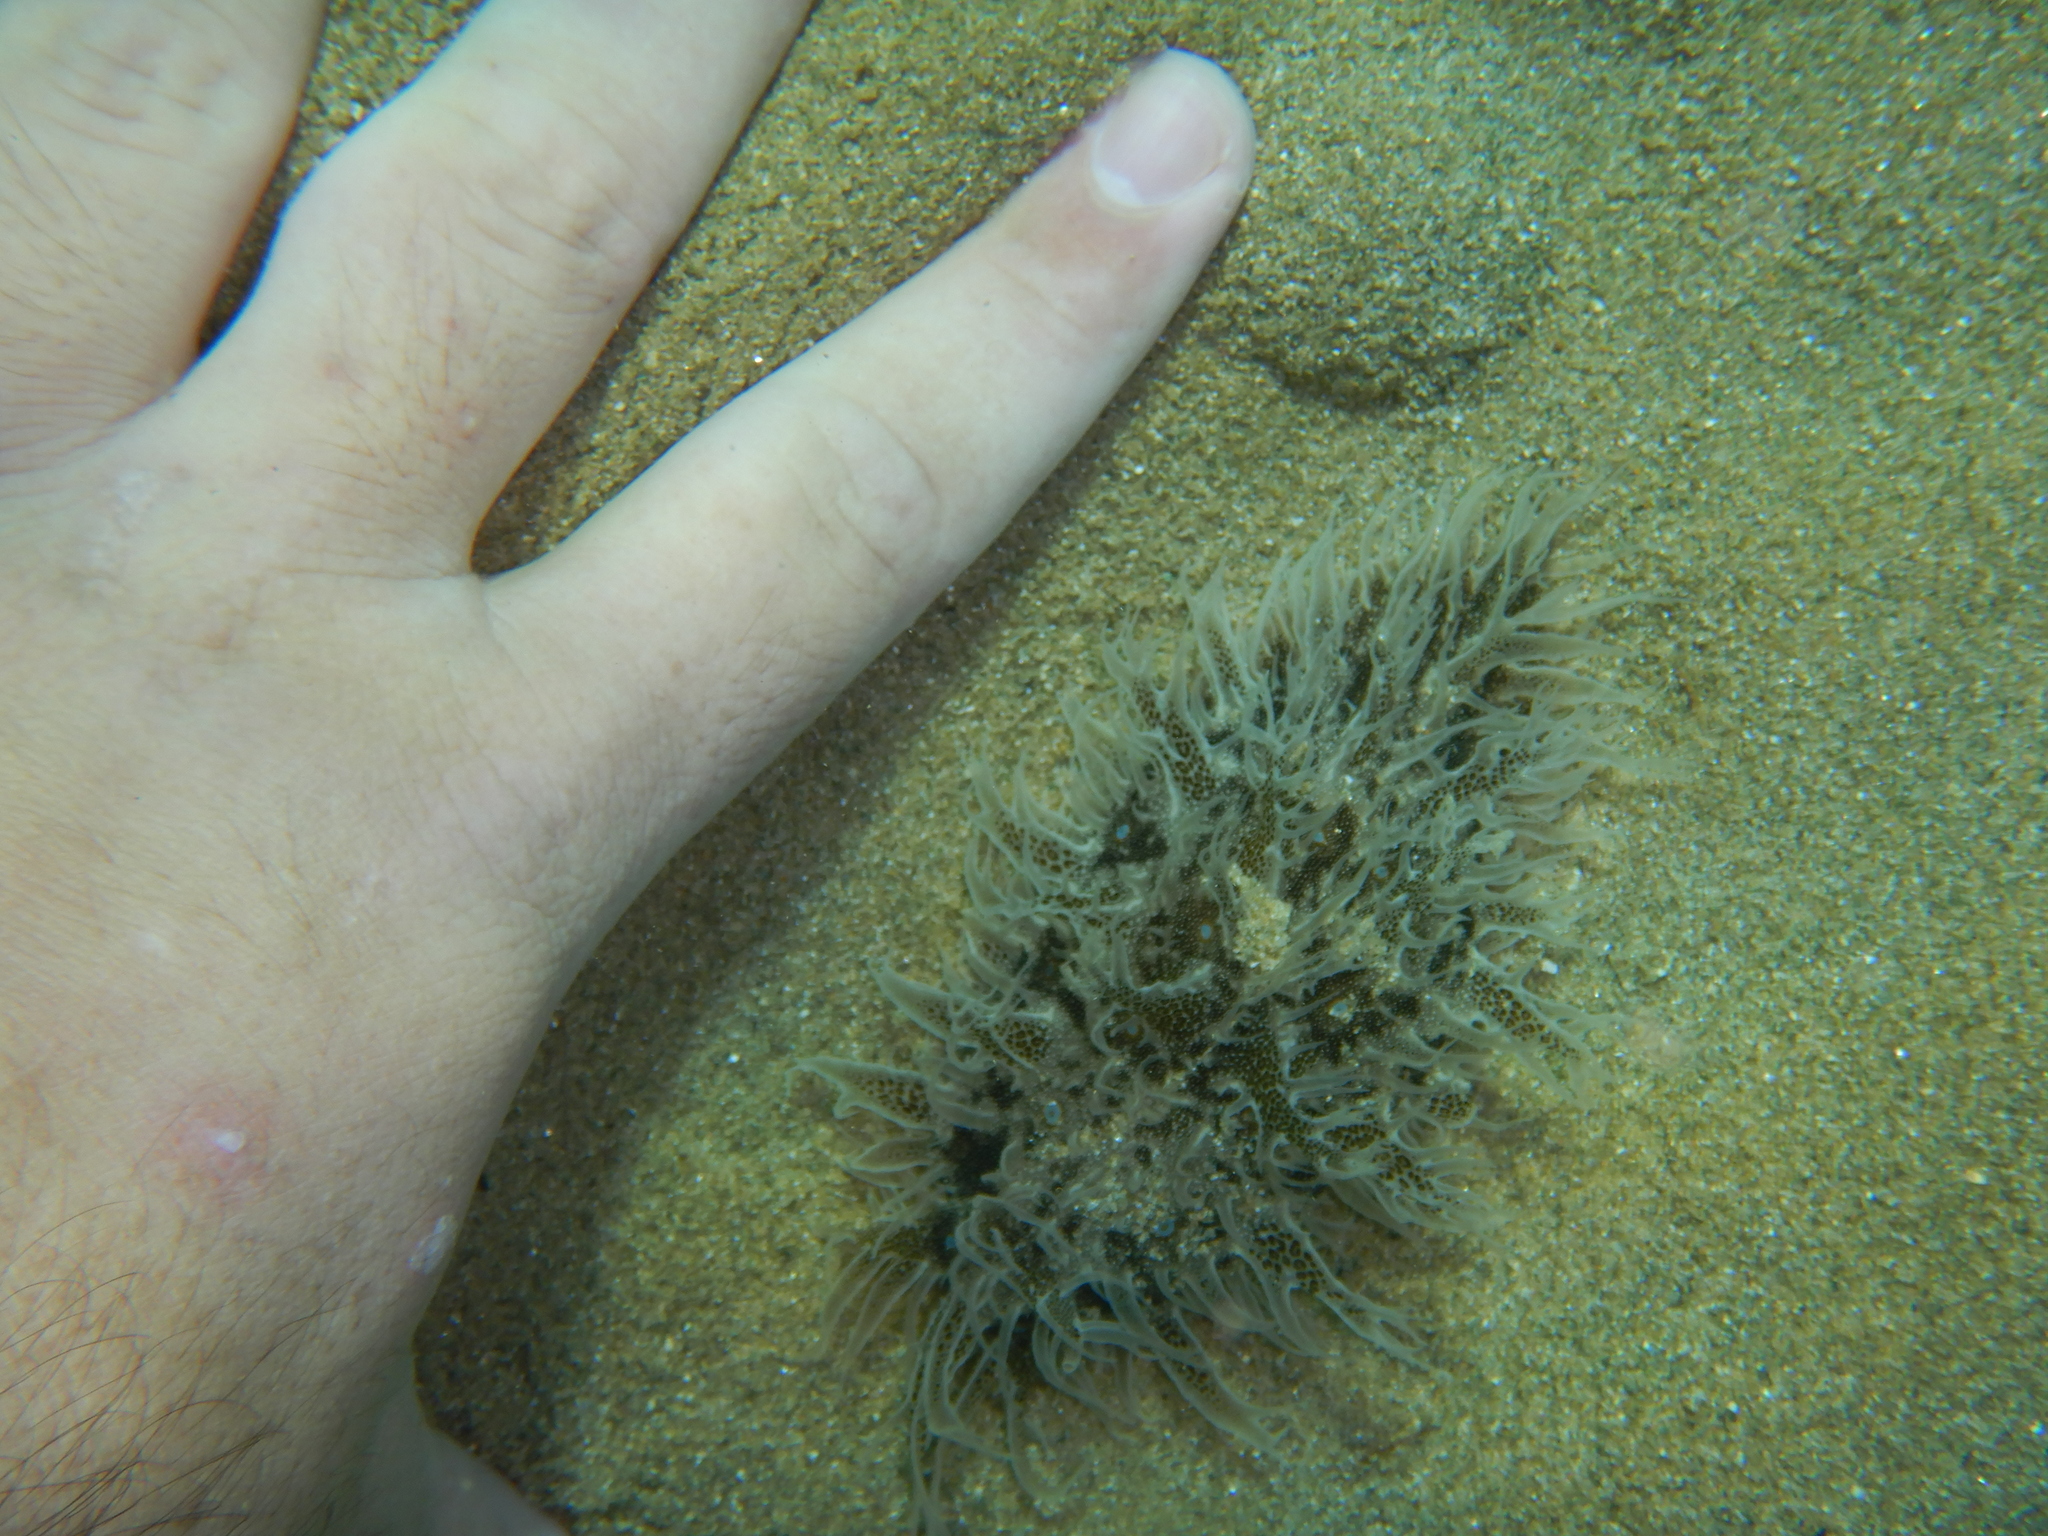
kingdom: Animalia
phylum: Mollusca
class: Gastropoda
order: Aplysiida
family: Aplysiidae
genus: Bursatella
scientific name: Bursatella leachii
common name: Shaggy sea hare
